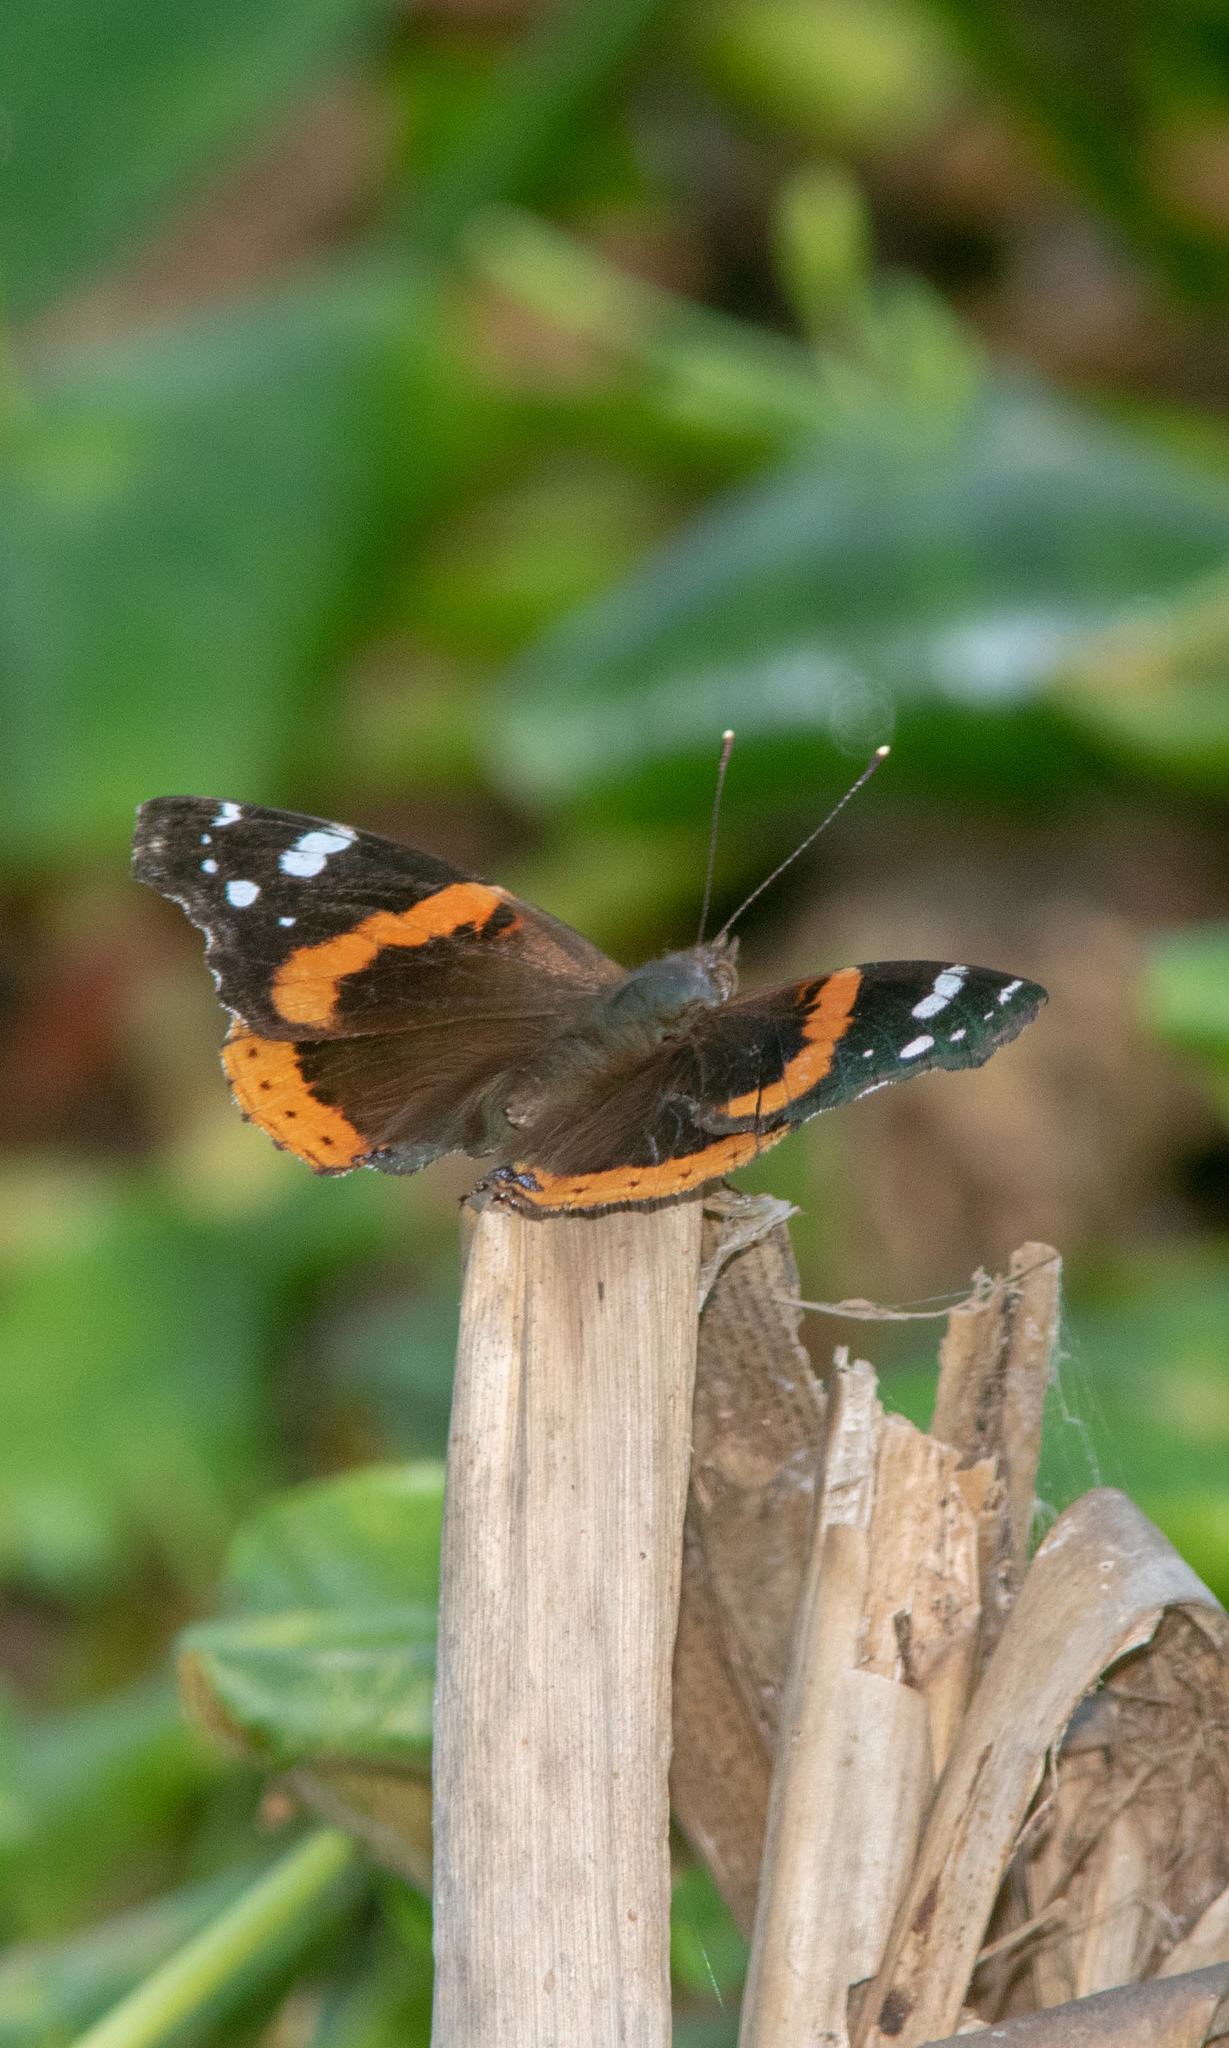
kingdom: Animalia
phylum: Arthropoda
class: Insecta
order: Lepidoptera
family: Nymphalidae
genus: Vanessa
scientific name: Vanessa atalanta
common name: Red admiral
